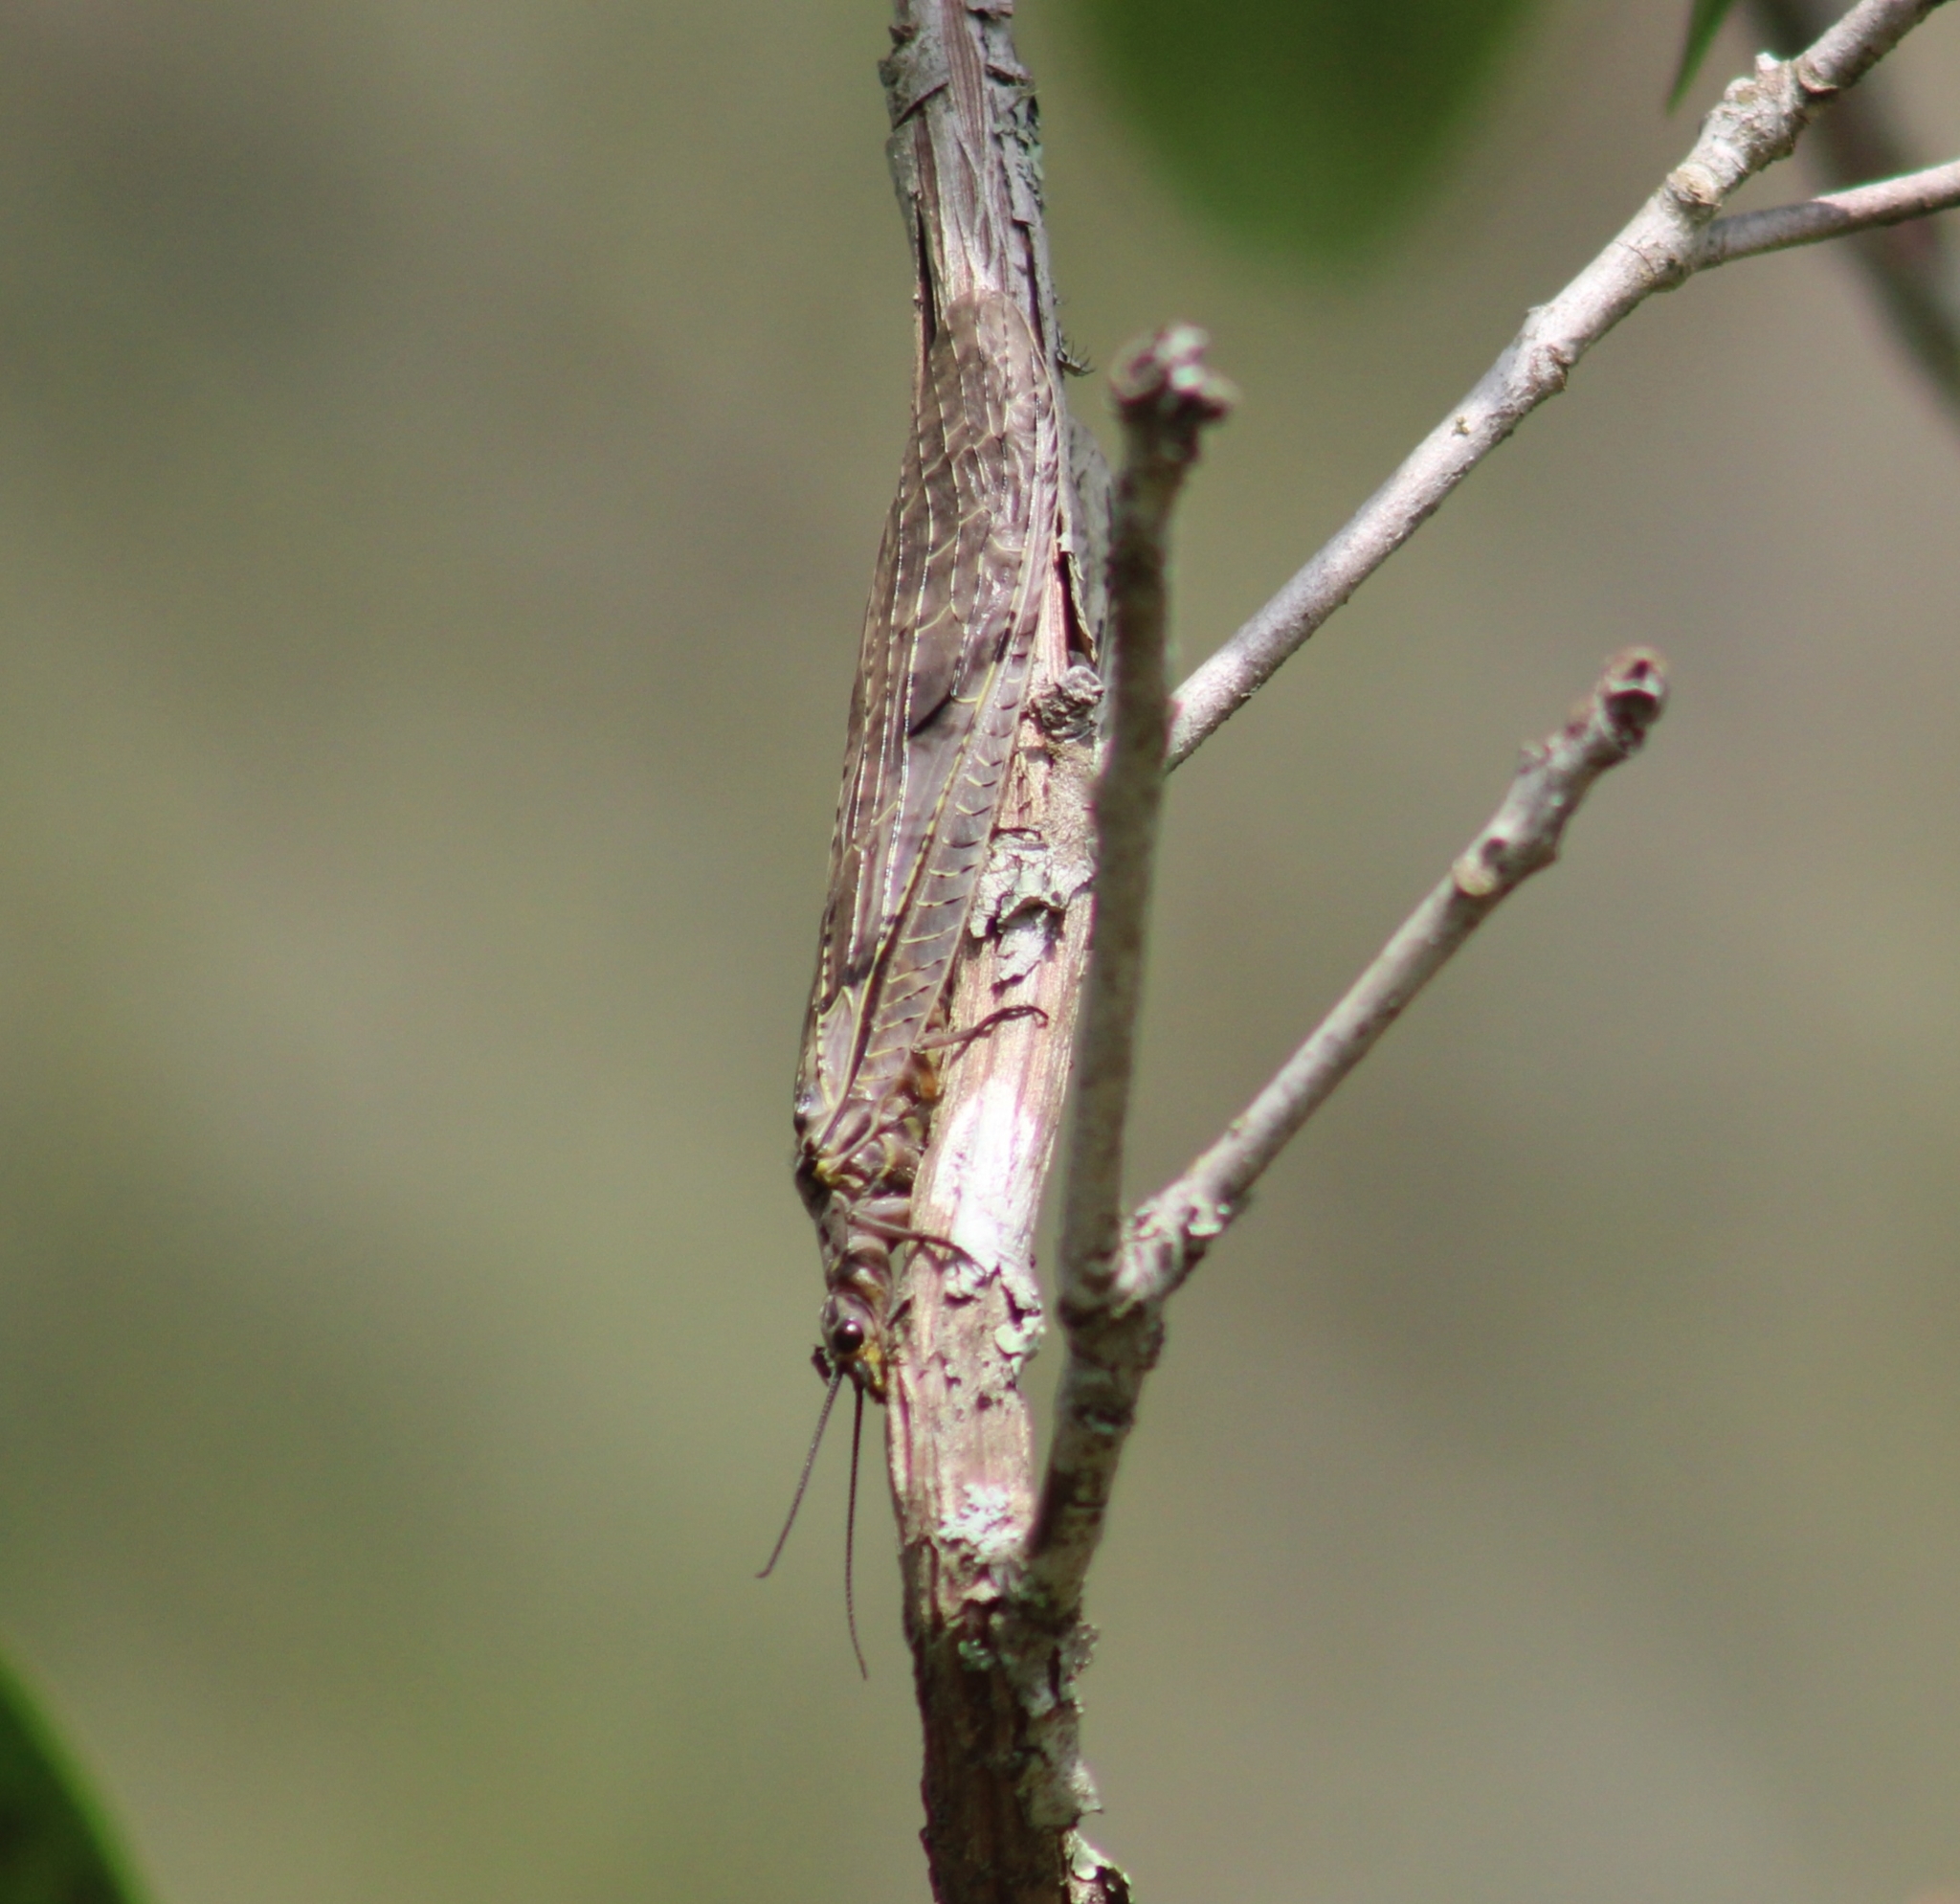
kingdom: Animalia
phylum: Arthropoda
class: Insecta
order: Megaloptera
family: Corydalidae
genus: Chauliodes
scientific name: Chauliodes rastricornis
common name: Spring fishfly
